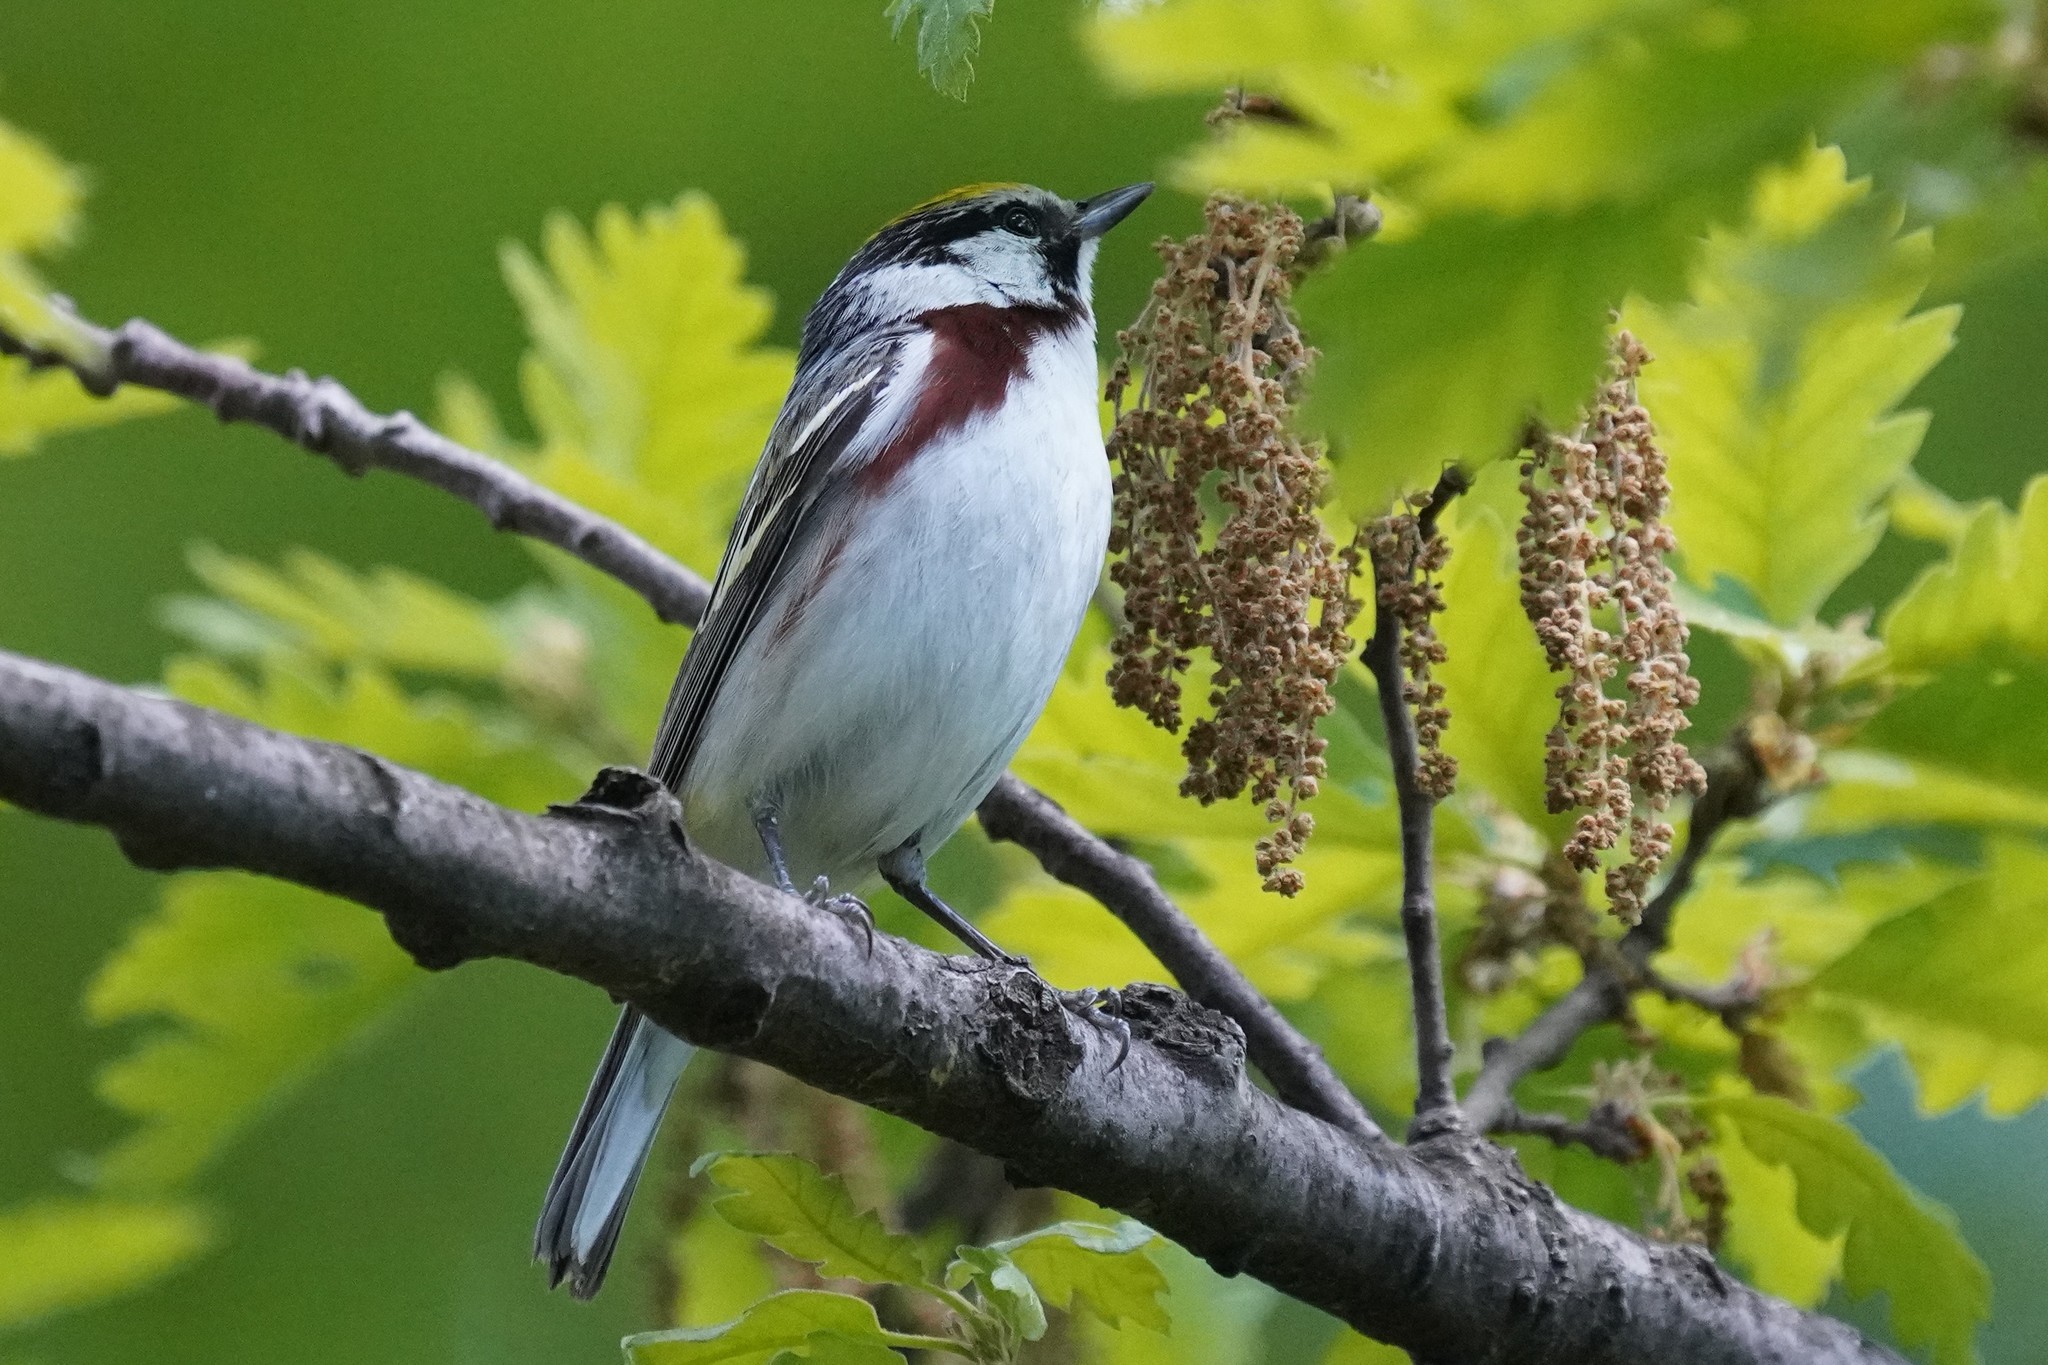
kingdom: Animalia
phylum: Chordata
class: Aves
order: Passeriformes
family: Parulidae
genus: Setophaga
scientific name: Setophaga pensylvanica
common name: Chestnut-sided warbler
